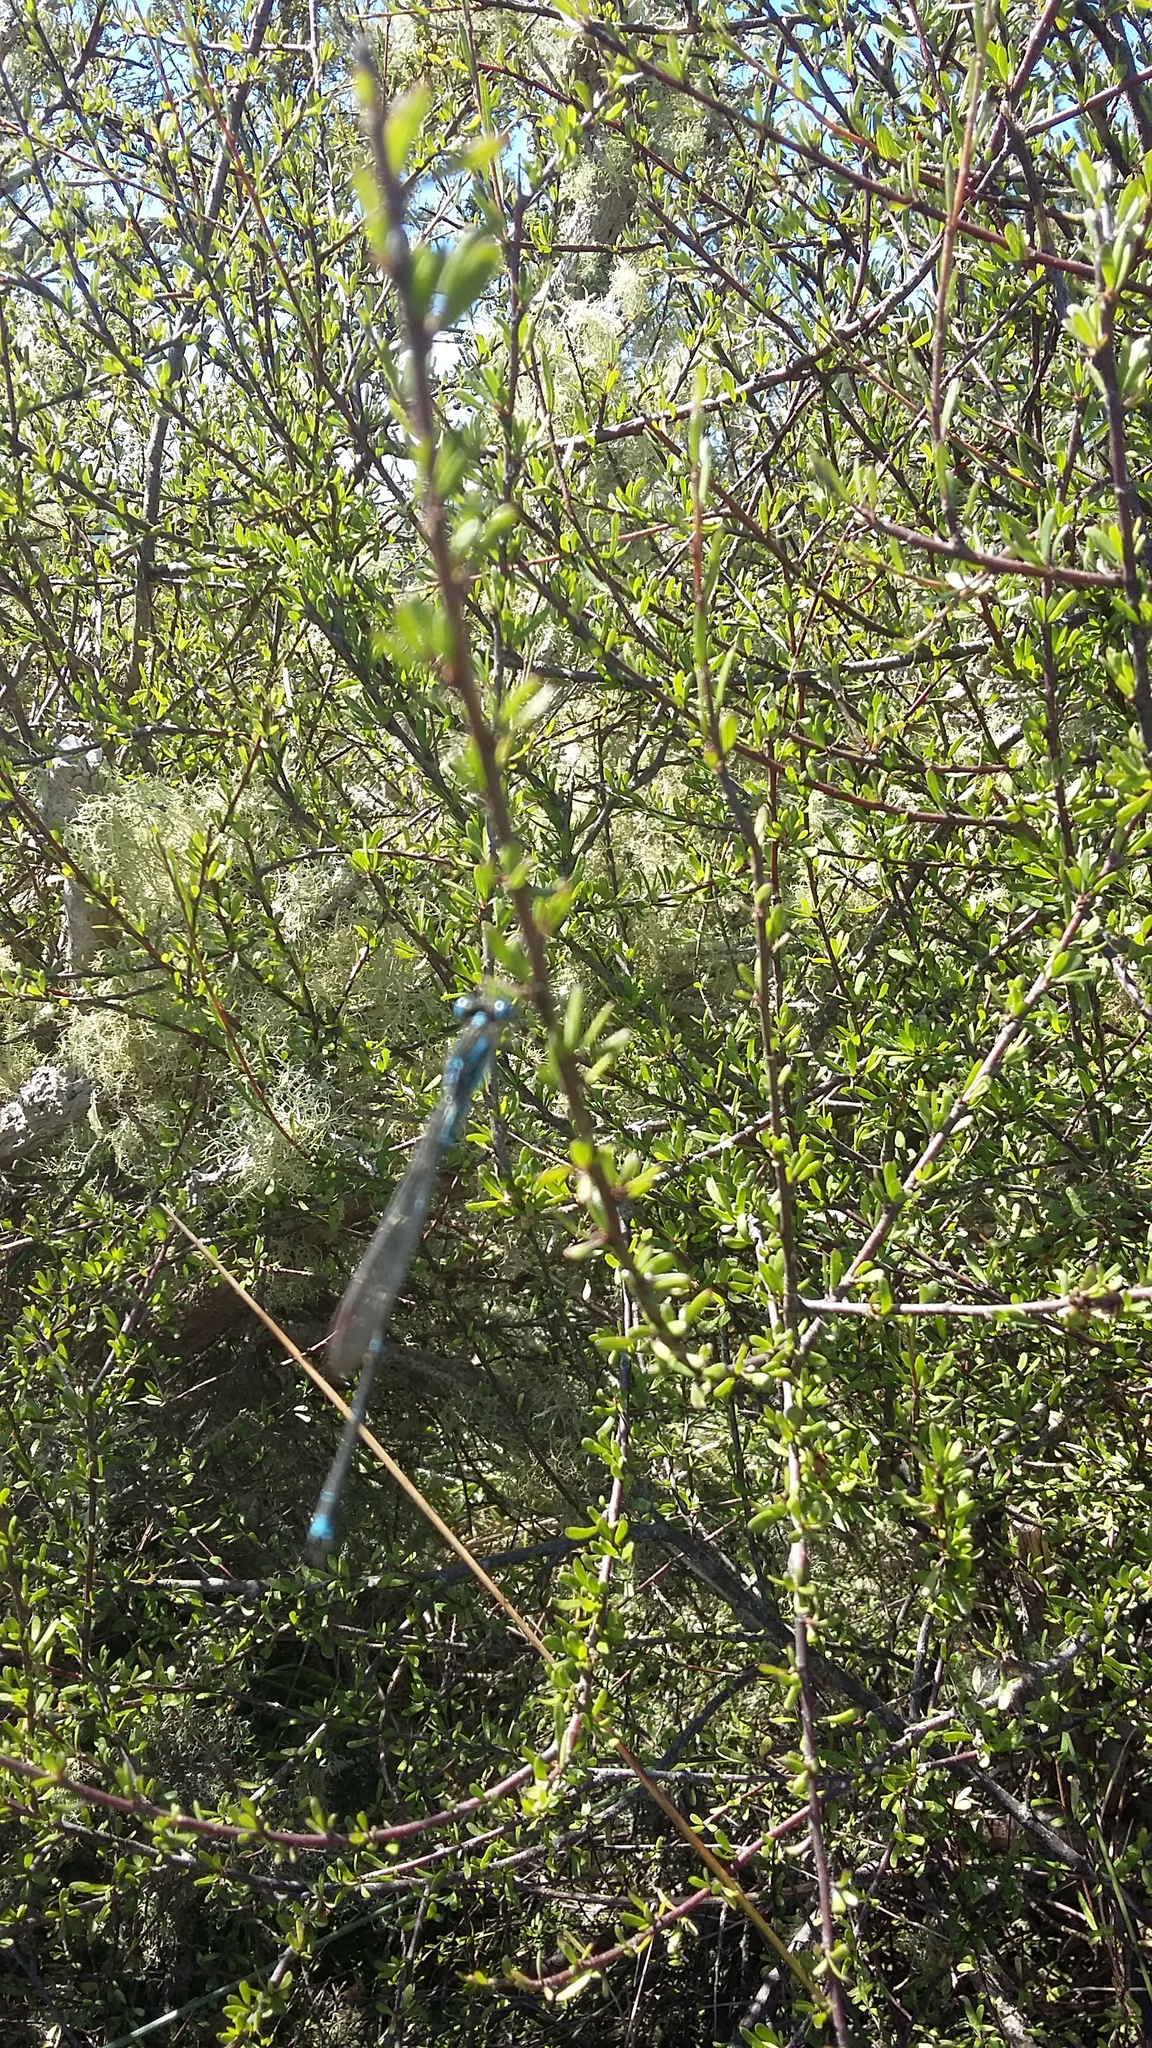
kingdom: Animalia
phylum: Arthropoda
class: Insecta
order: Odonata
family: Lestidae
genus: Austrolestes
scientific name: Austrolestes colensonis
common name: Blue damselfly
